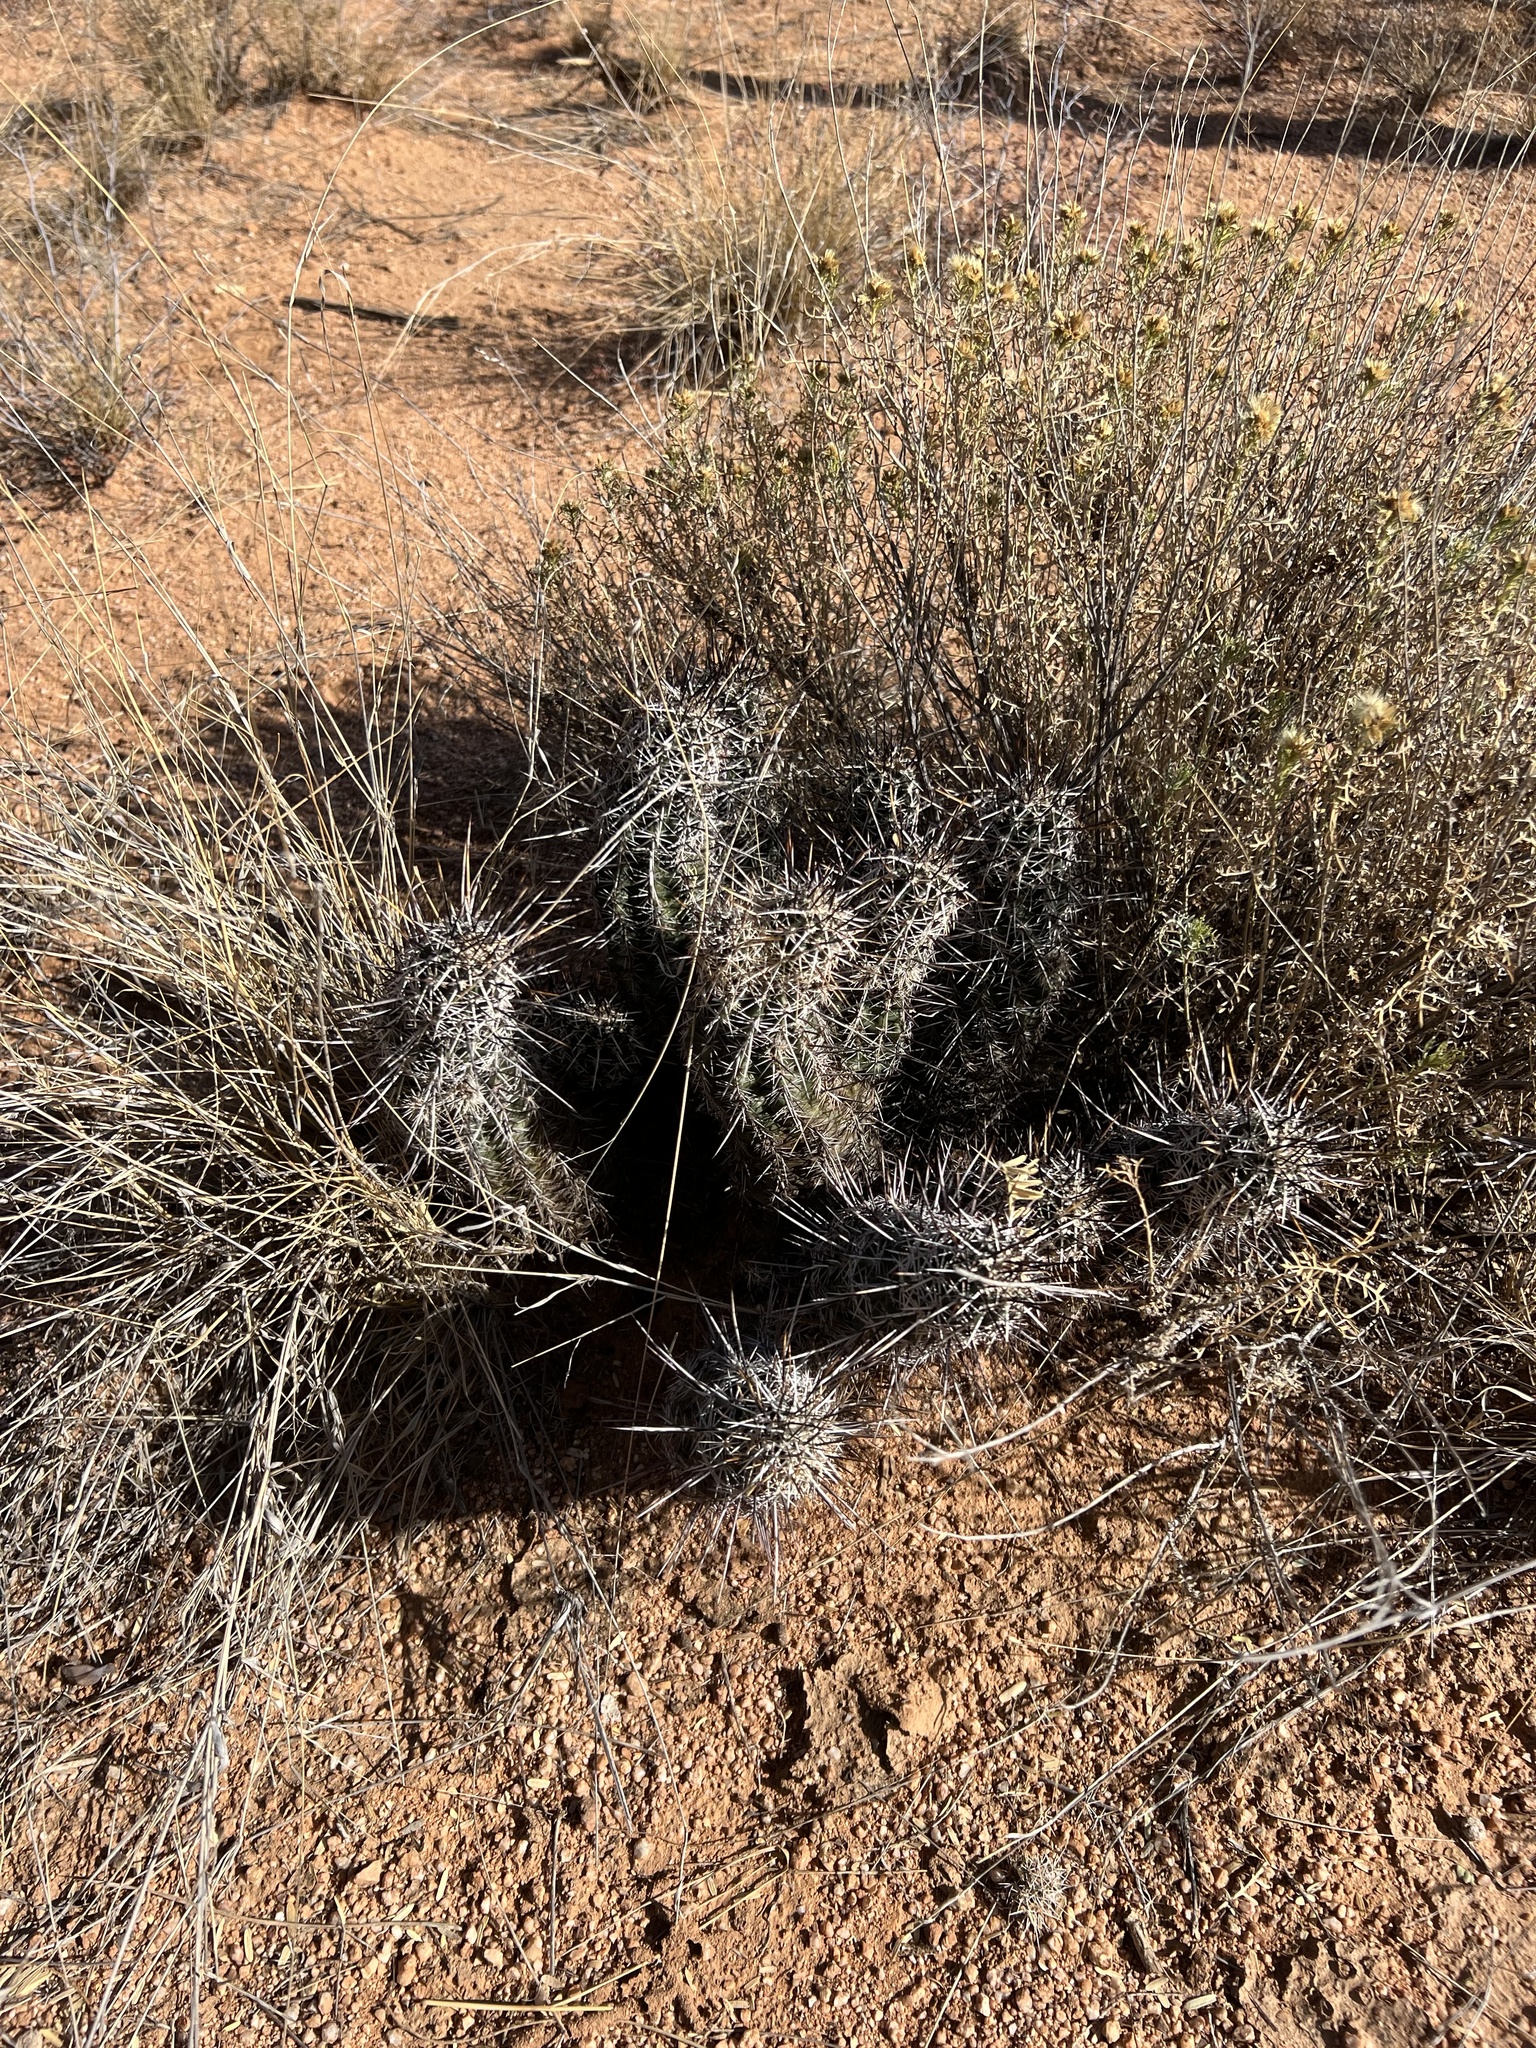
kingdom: Plantae
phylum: Tracheophyta
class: Magnoliopsida
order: Caryophyllales
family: Cactaceae
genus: Echinocereus
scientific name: Echinocereus fasciculatus
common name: Bundle hedgehog
